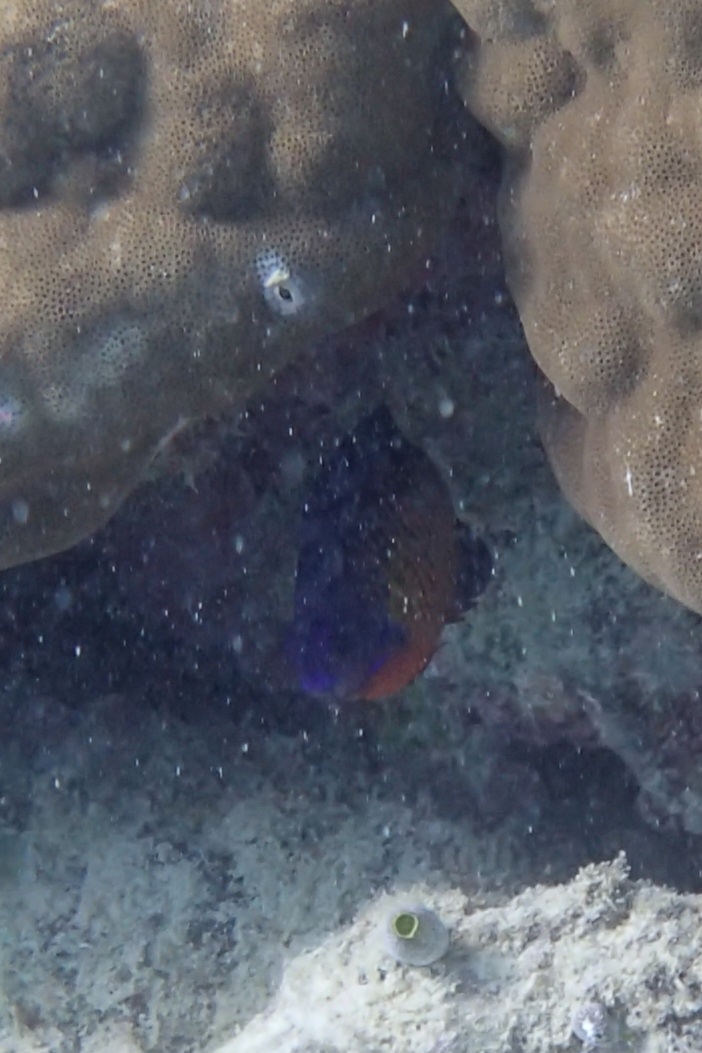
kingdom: Animalia
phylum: Chordata
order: Perciformes
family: Pomacanthidae
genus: Centropyge
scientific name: Centropyge bispinosa
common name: Coral beauty
